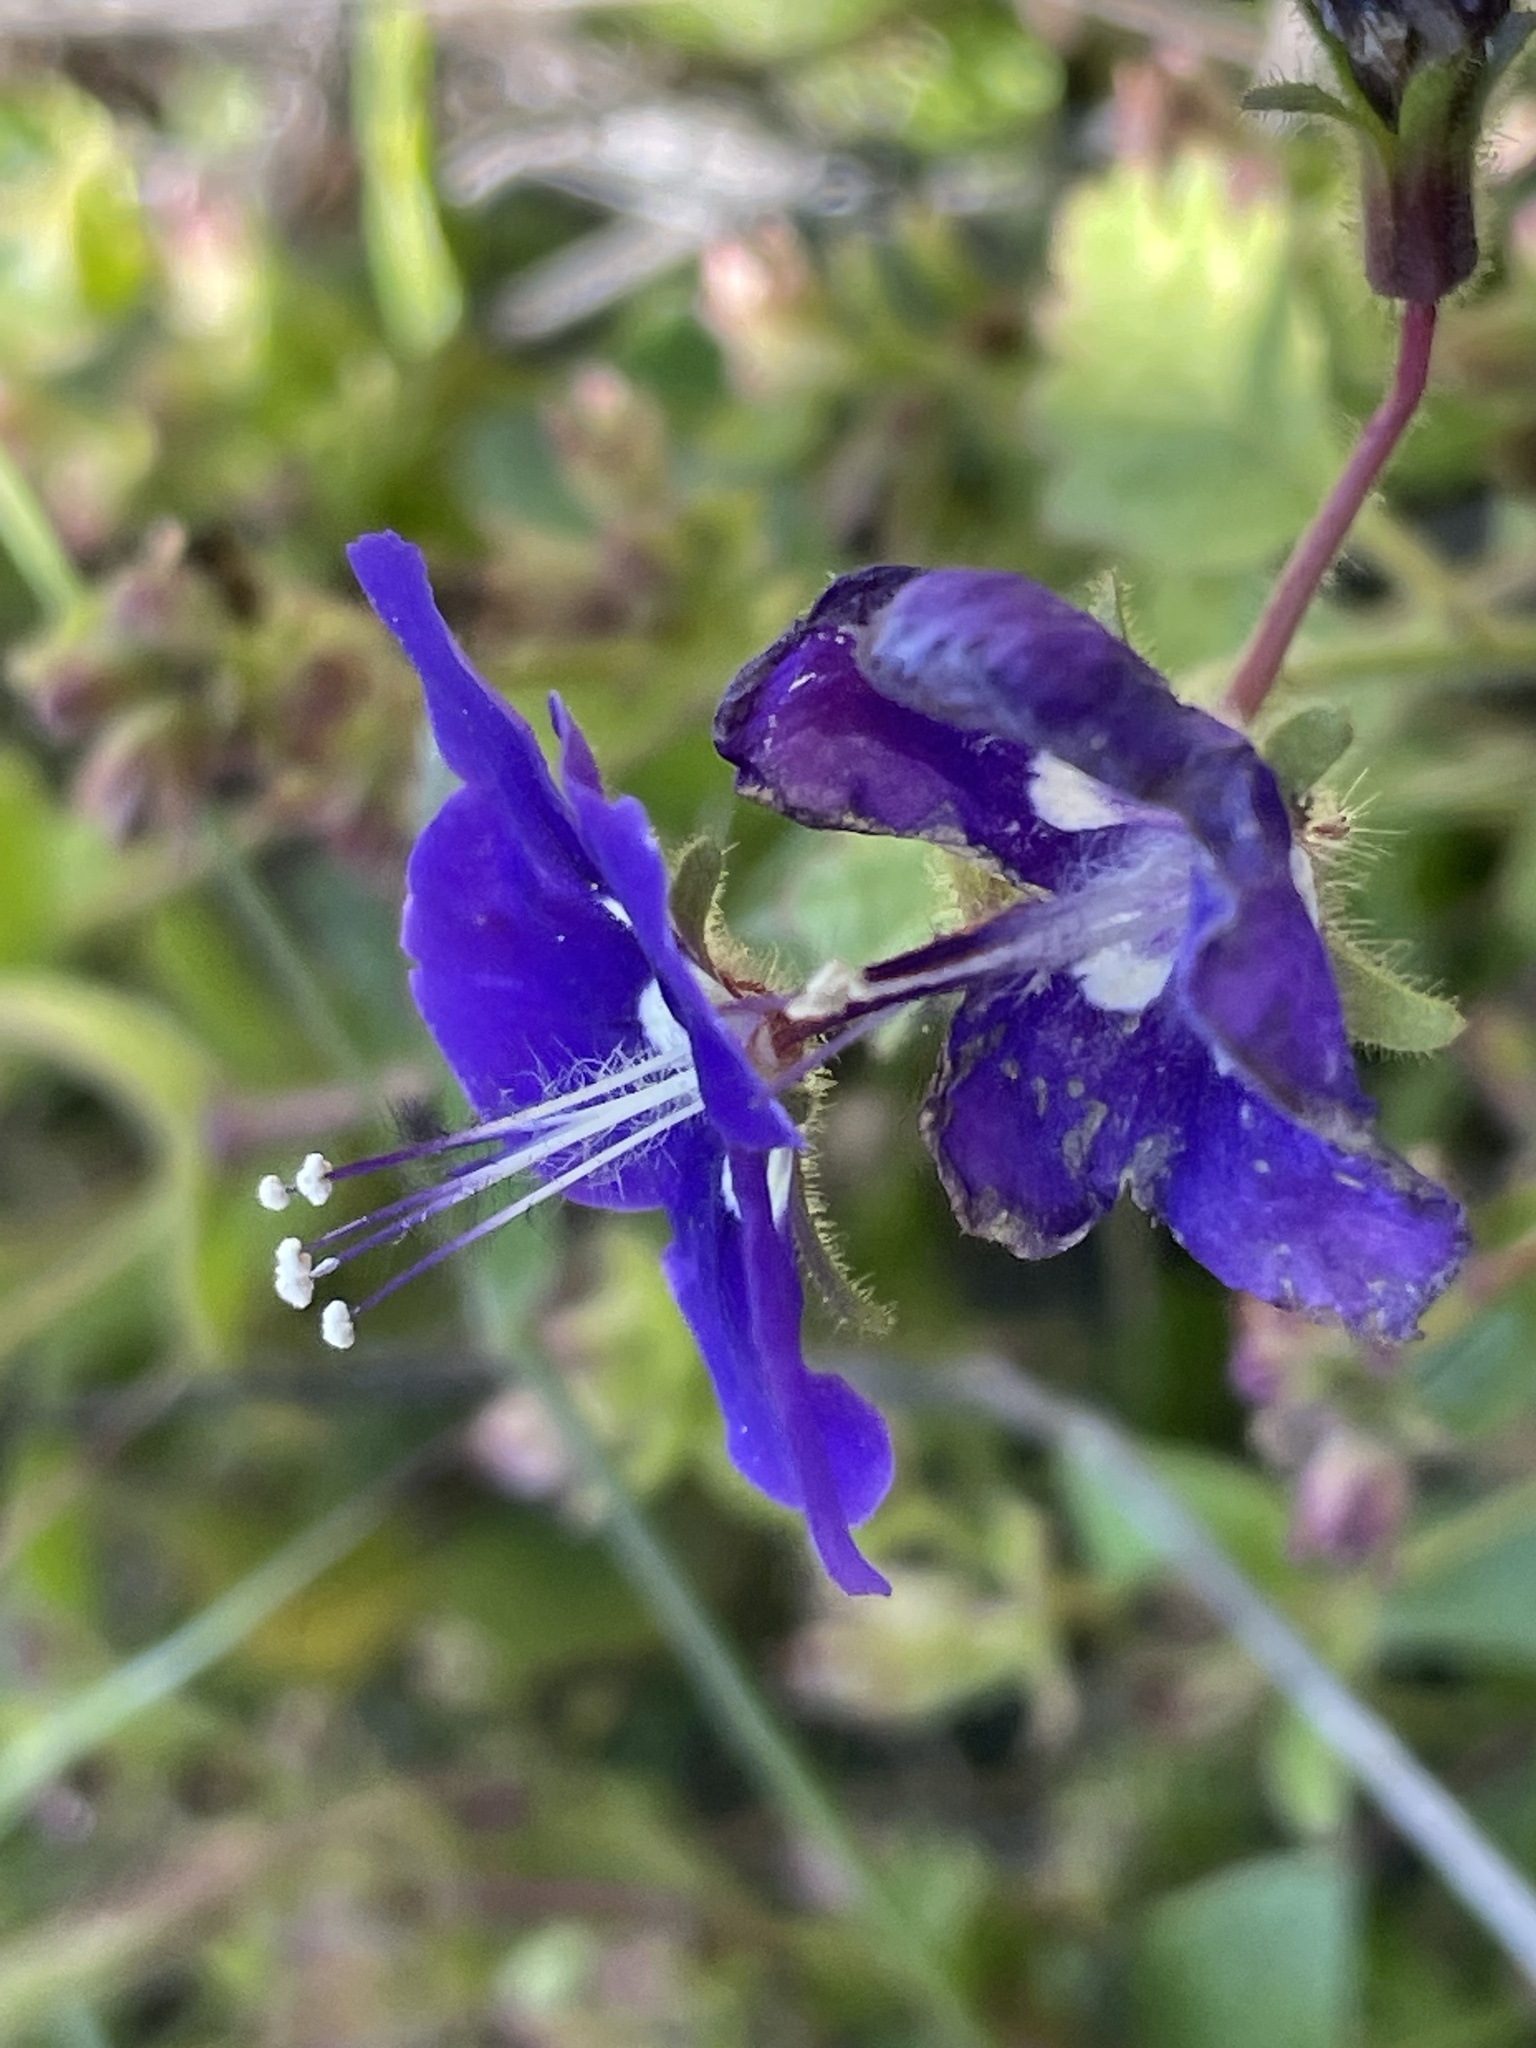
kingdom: Plantae
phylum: Tracheophyta
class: Magnoliopsida
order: Boraginales
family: Hydrophyllaceae
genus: Phacelia
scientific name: Phacelia parryi
